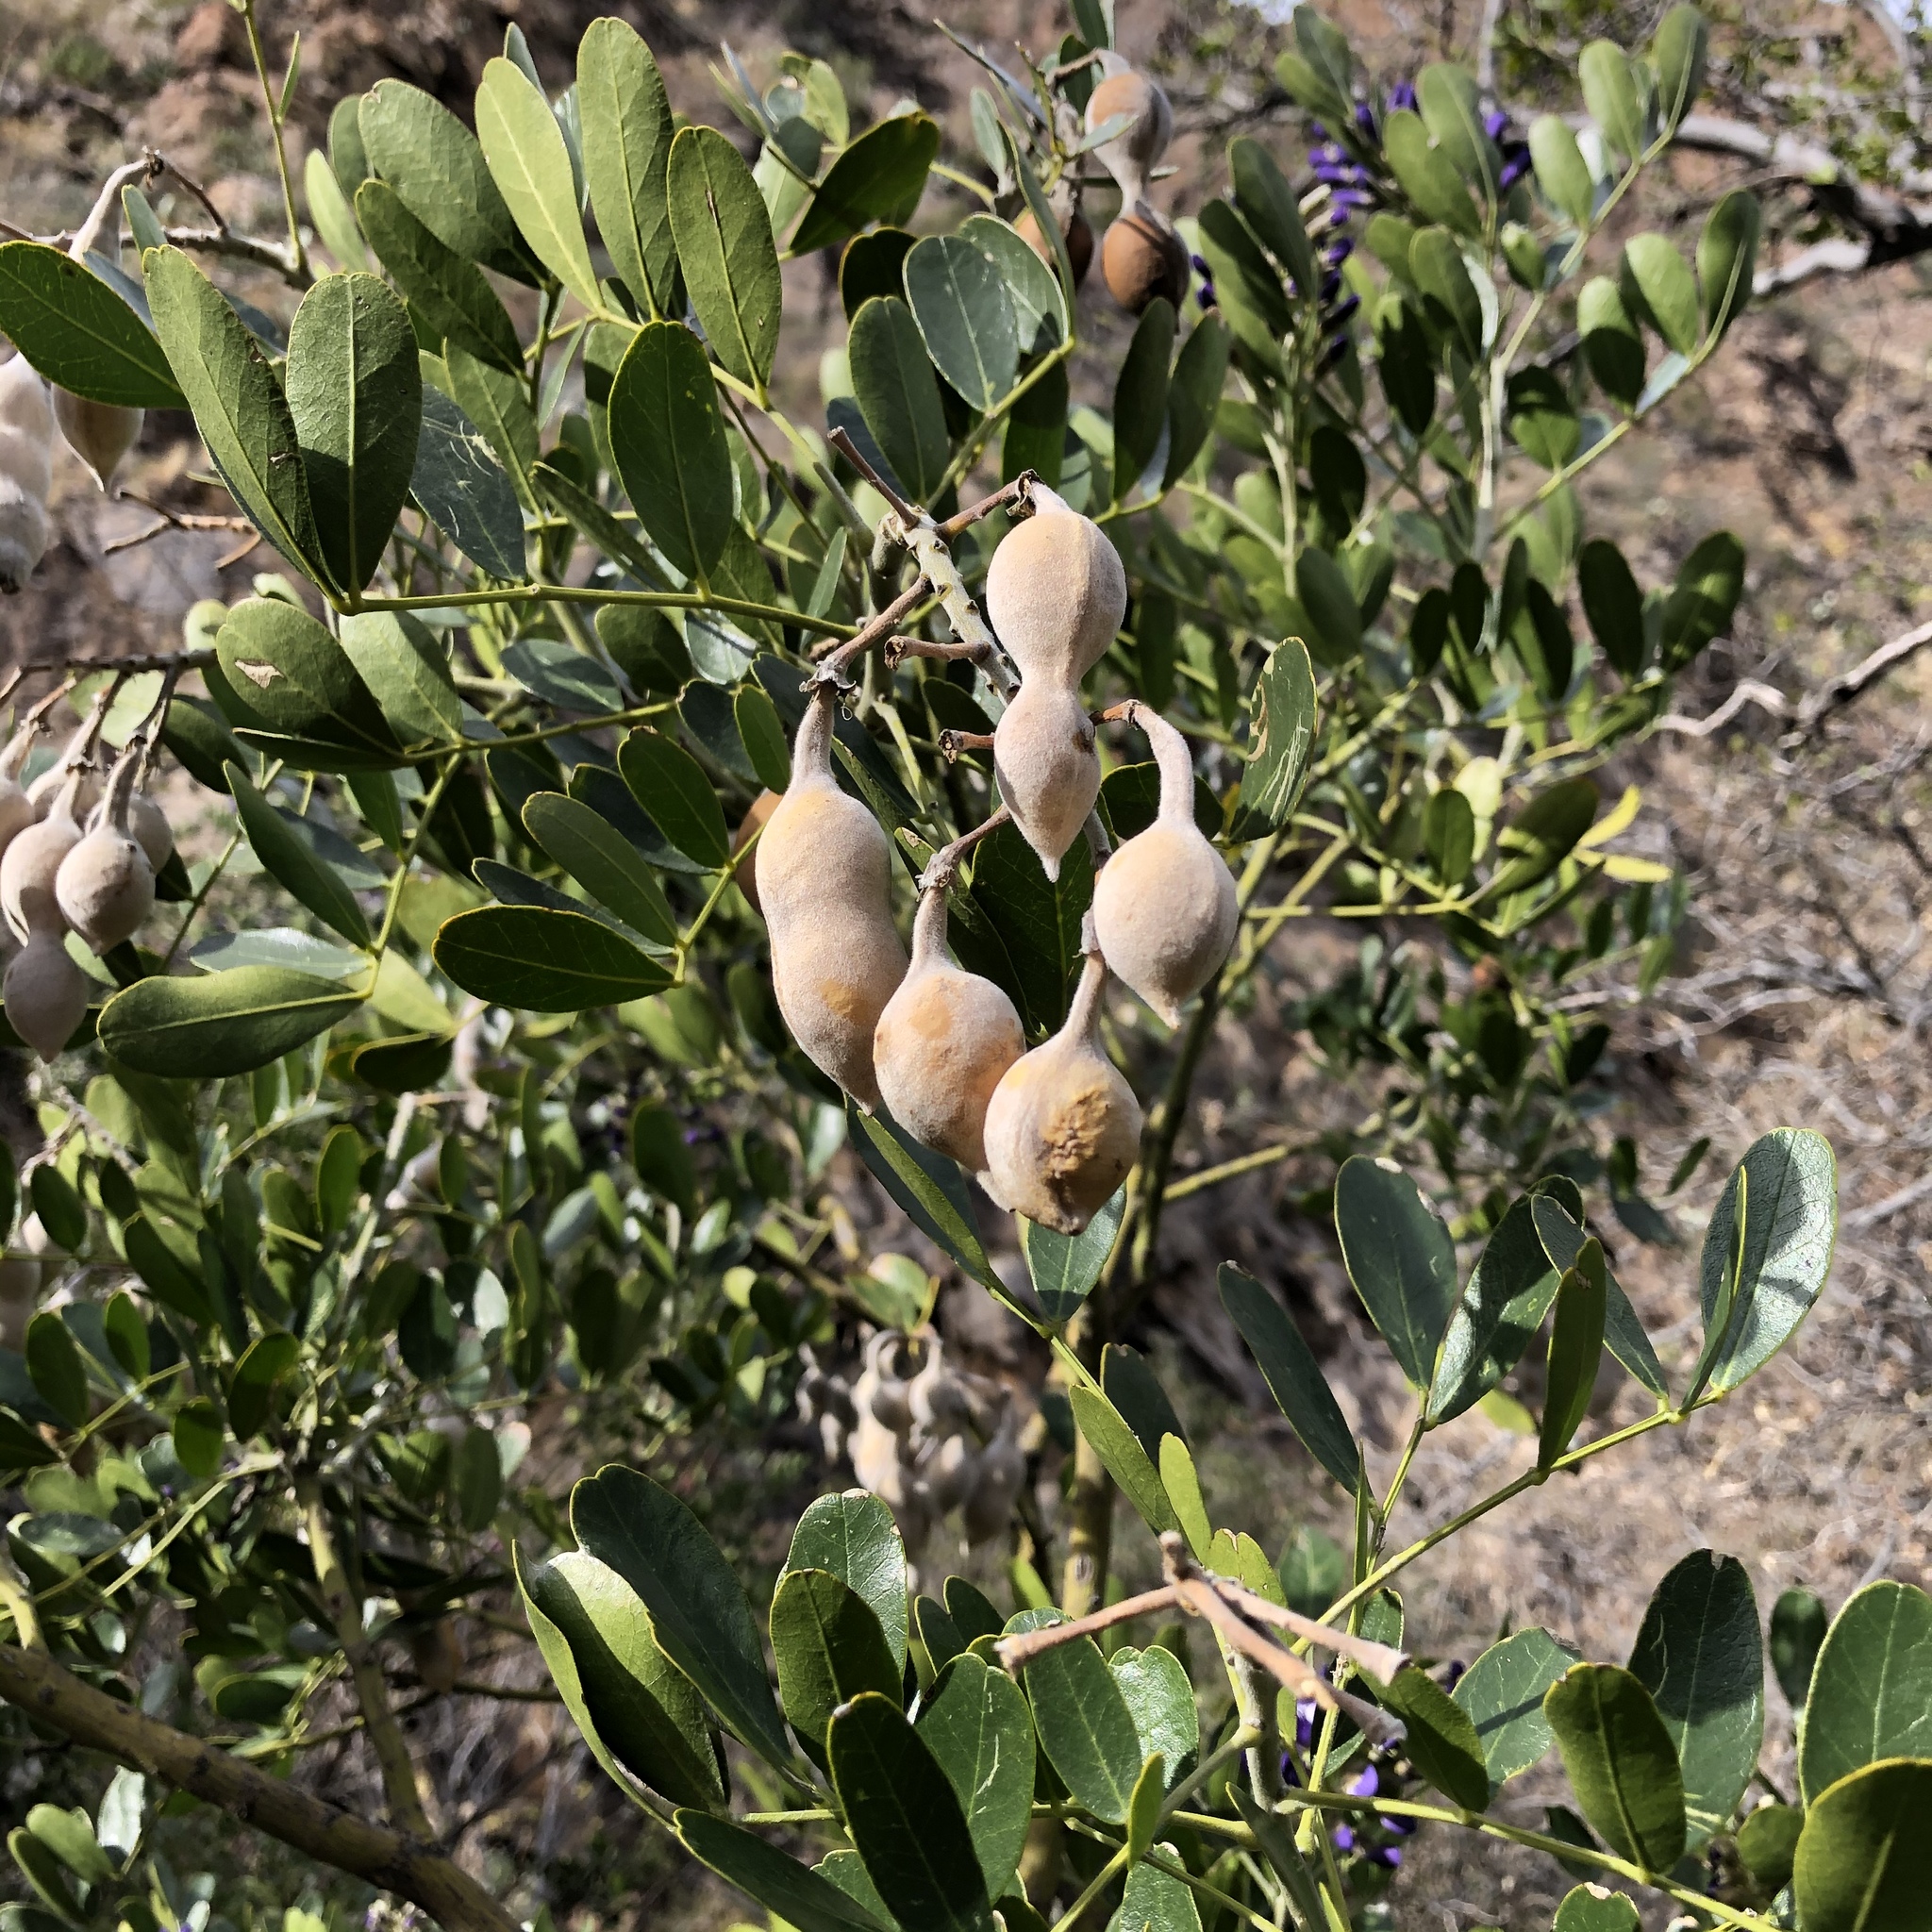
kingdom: Plantae
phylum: Tracheophyta
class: Magnoliopsida
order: Fabales
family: Fabaceae
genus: Dermatophyllum
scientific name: Dermatophyllum secundiflorum
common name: Texas-mountain-laurel
